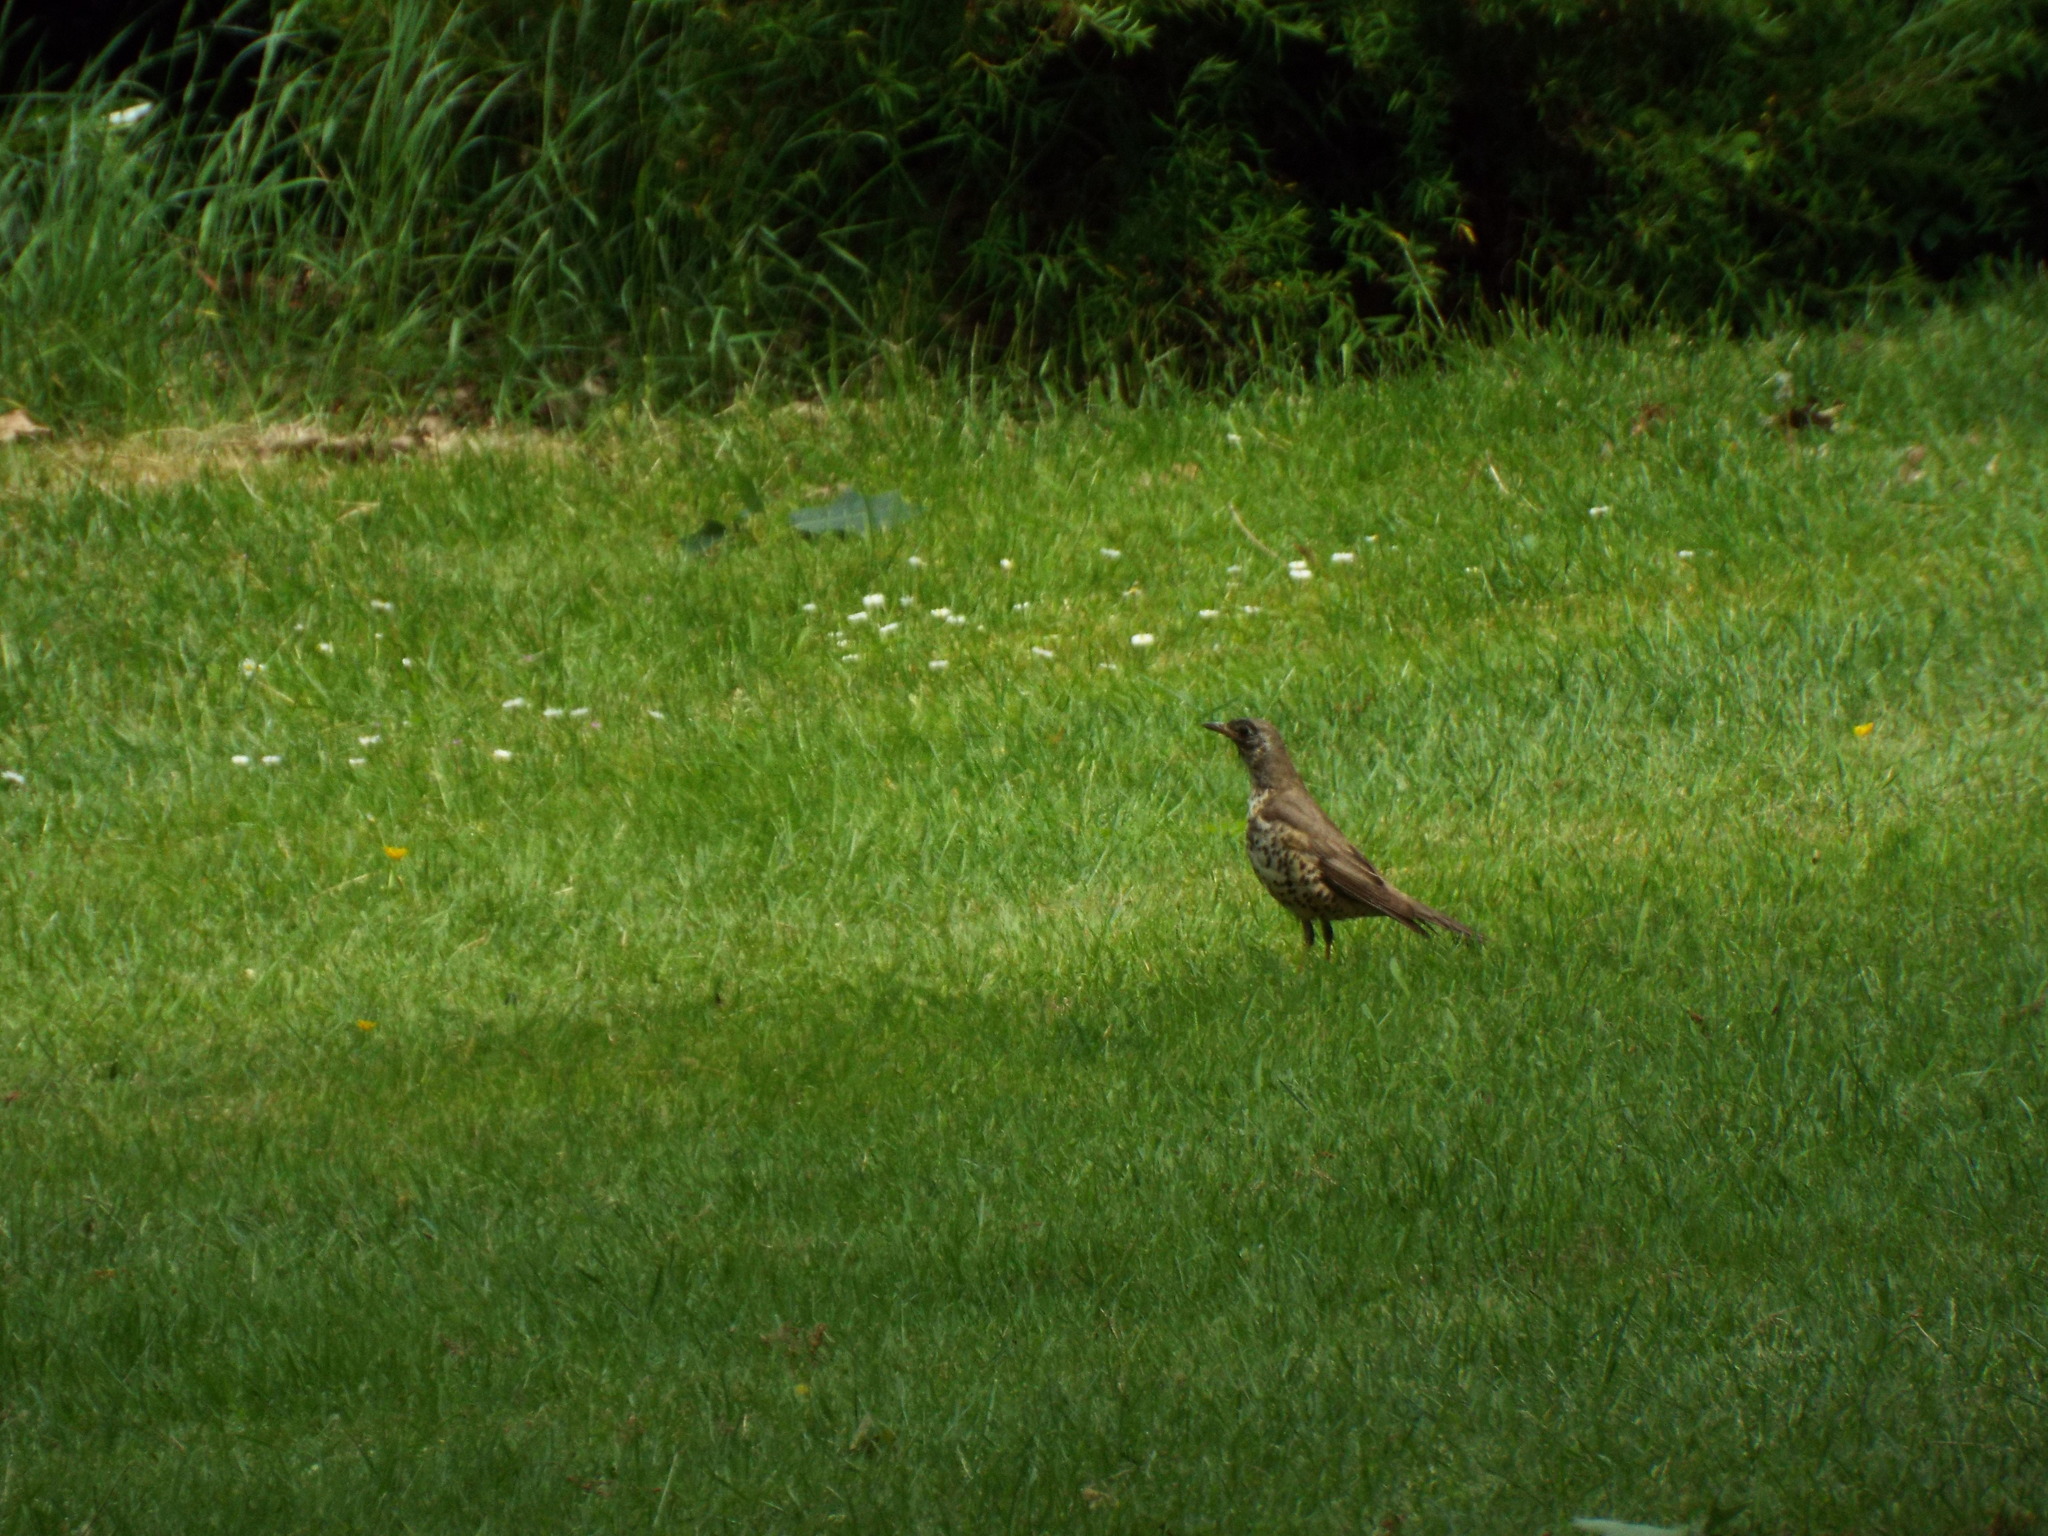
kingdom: Animalia
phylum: Chordata
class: Aves
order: Passeriformes
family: Turdidae
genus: Turdus
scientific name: Turdus viscivorus
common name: Mistle thrush
